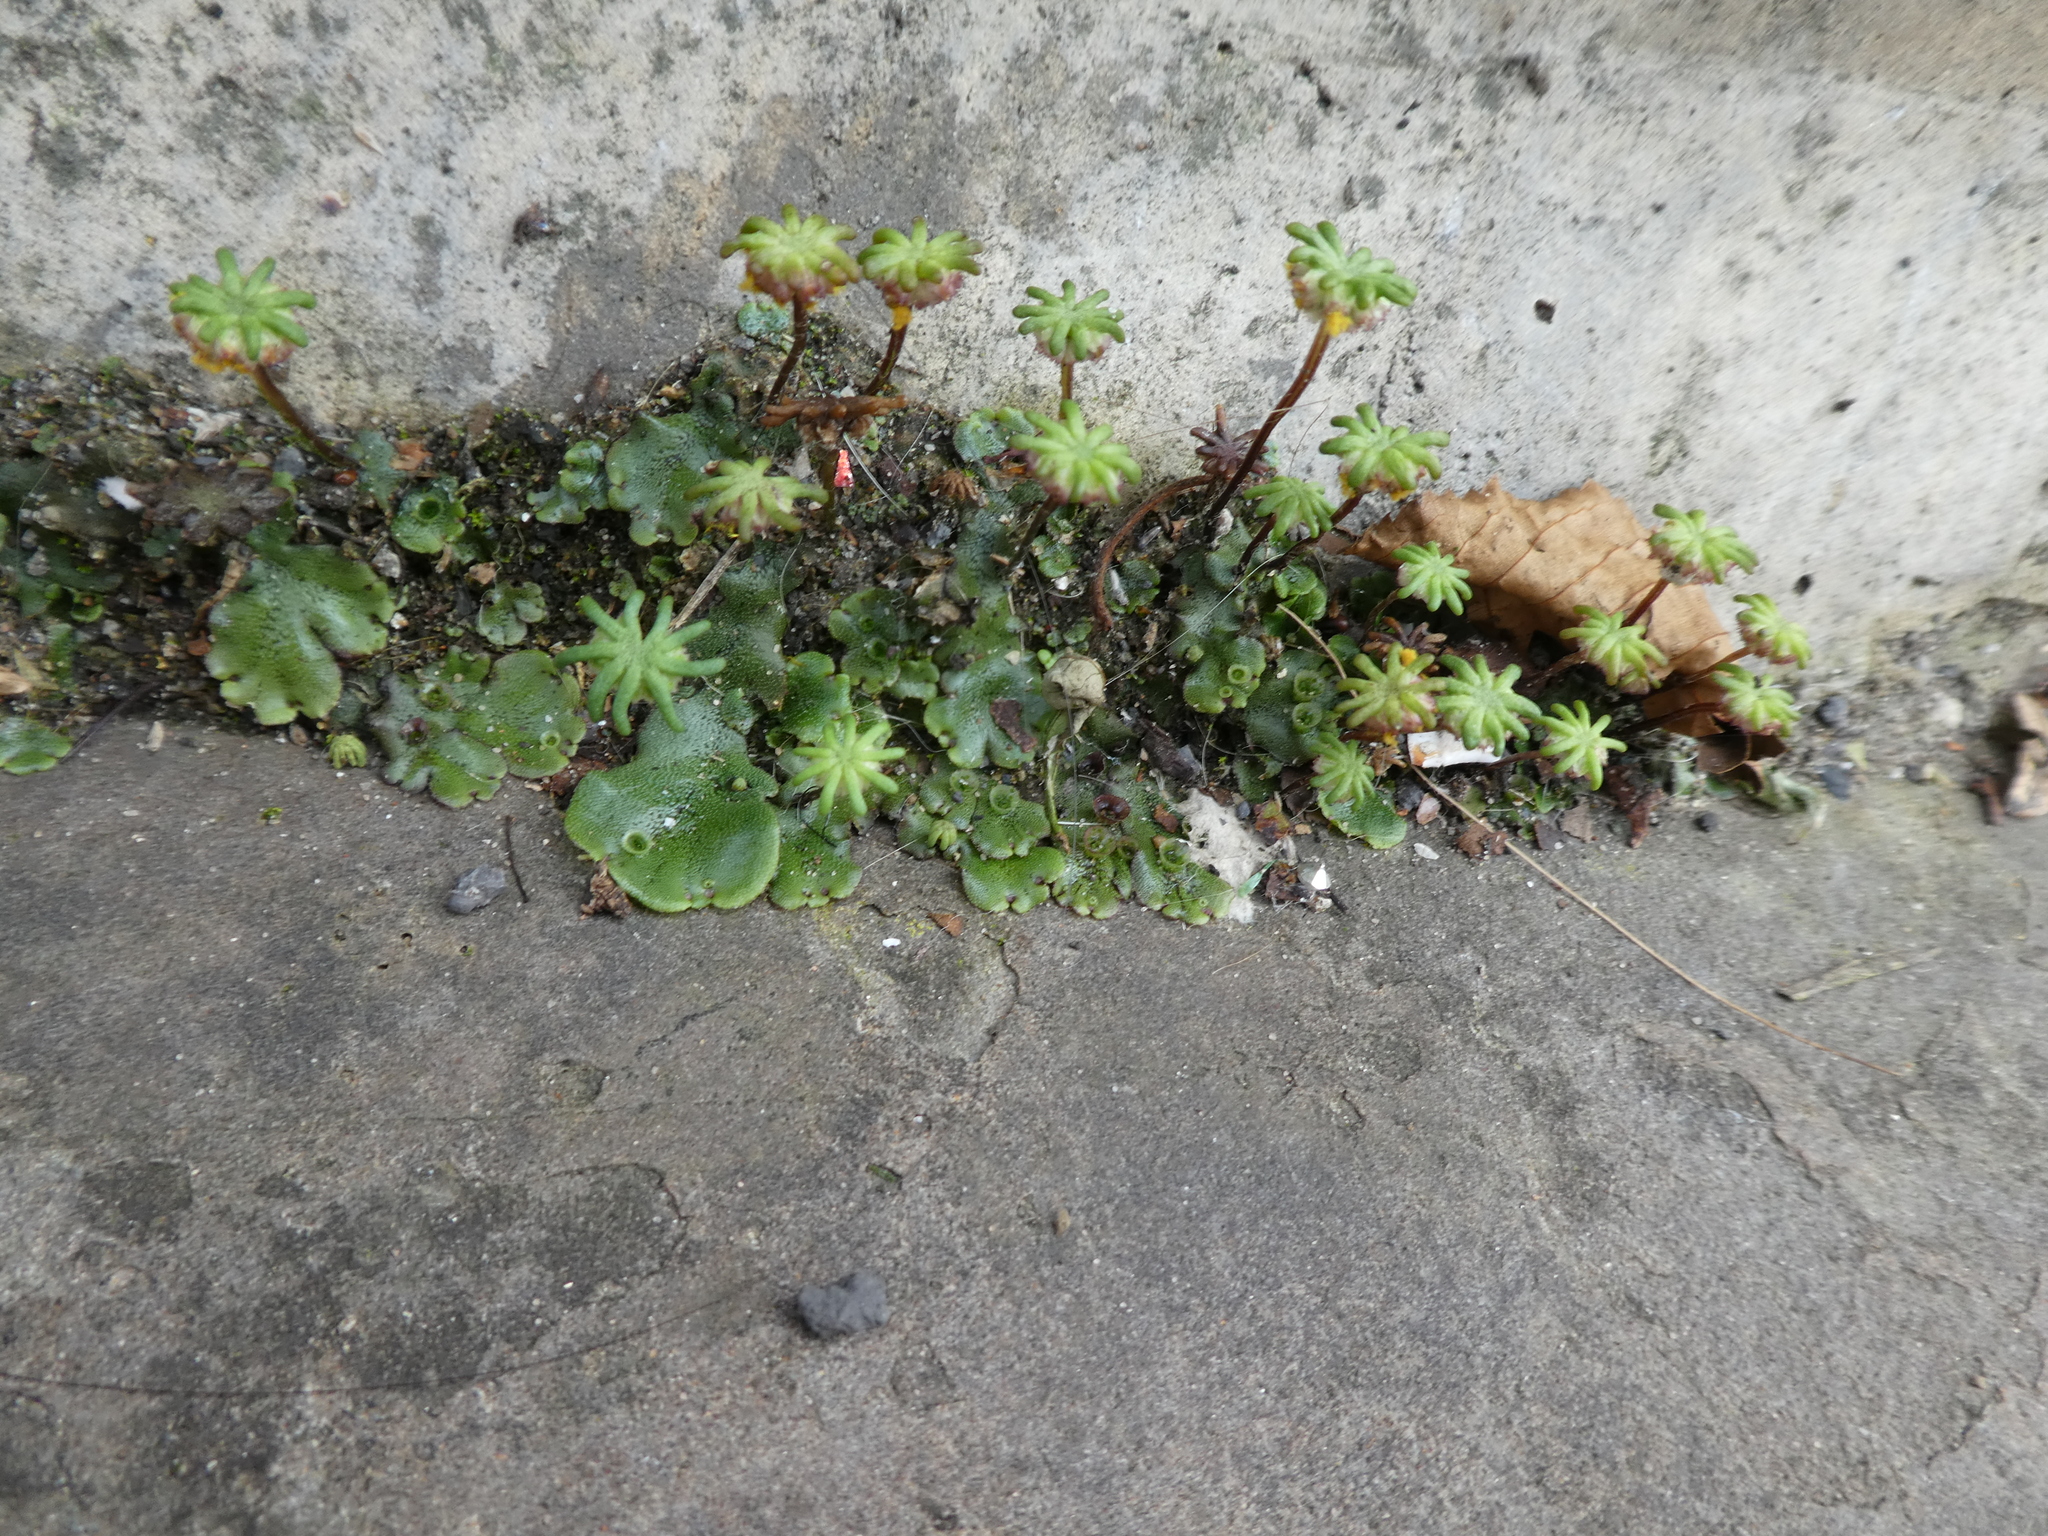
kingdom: Plantae
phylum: Marchantiophyta
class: Marchantiopsida
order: Marchantiales
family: Marchantiaceae
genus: Marchantia
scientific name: Marchantia polymorpha
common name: Common liverwort
